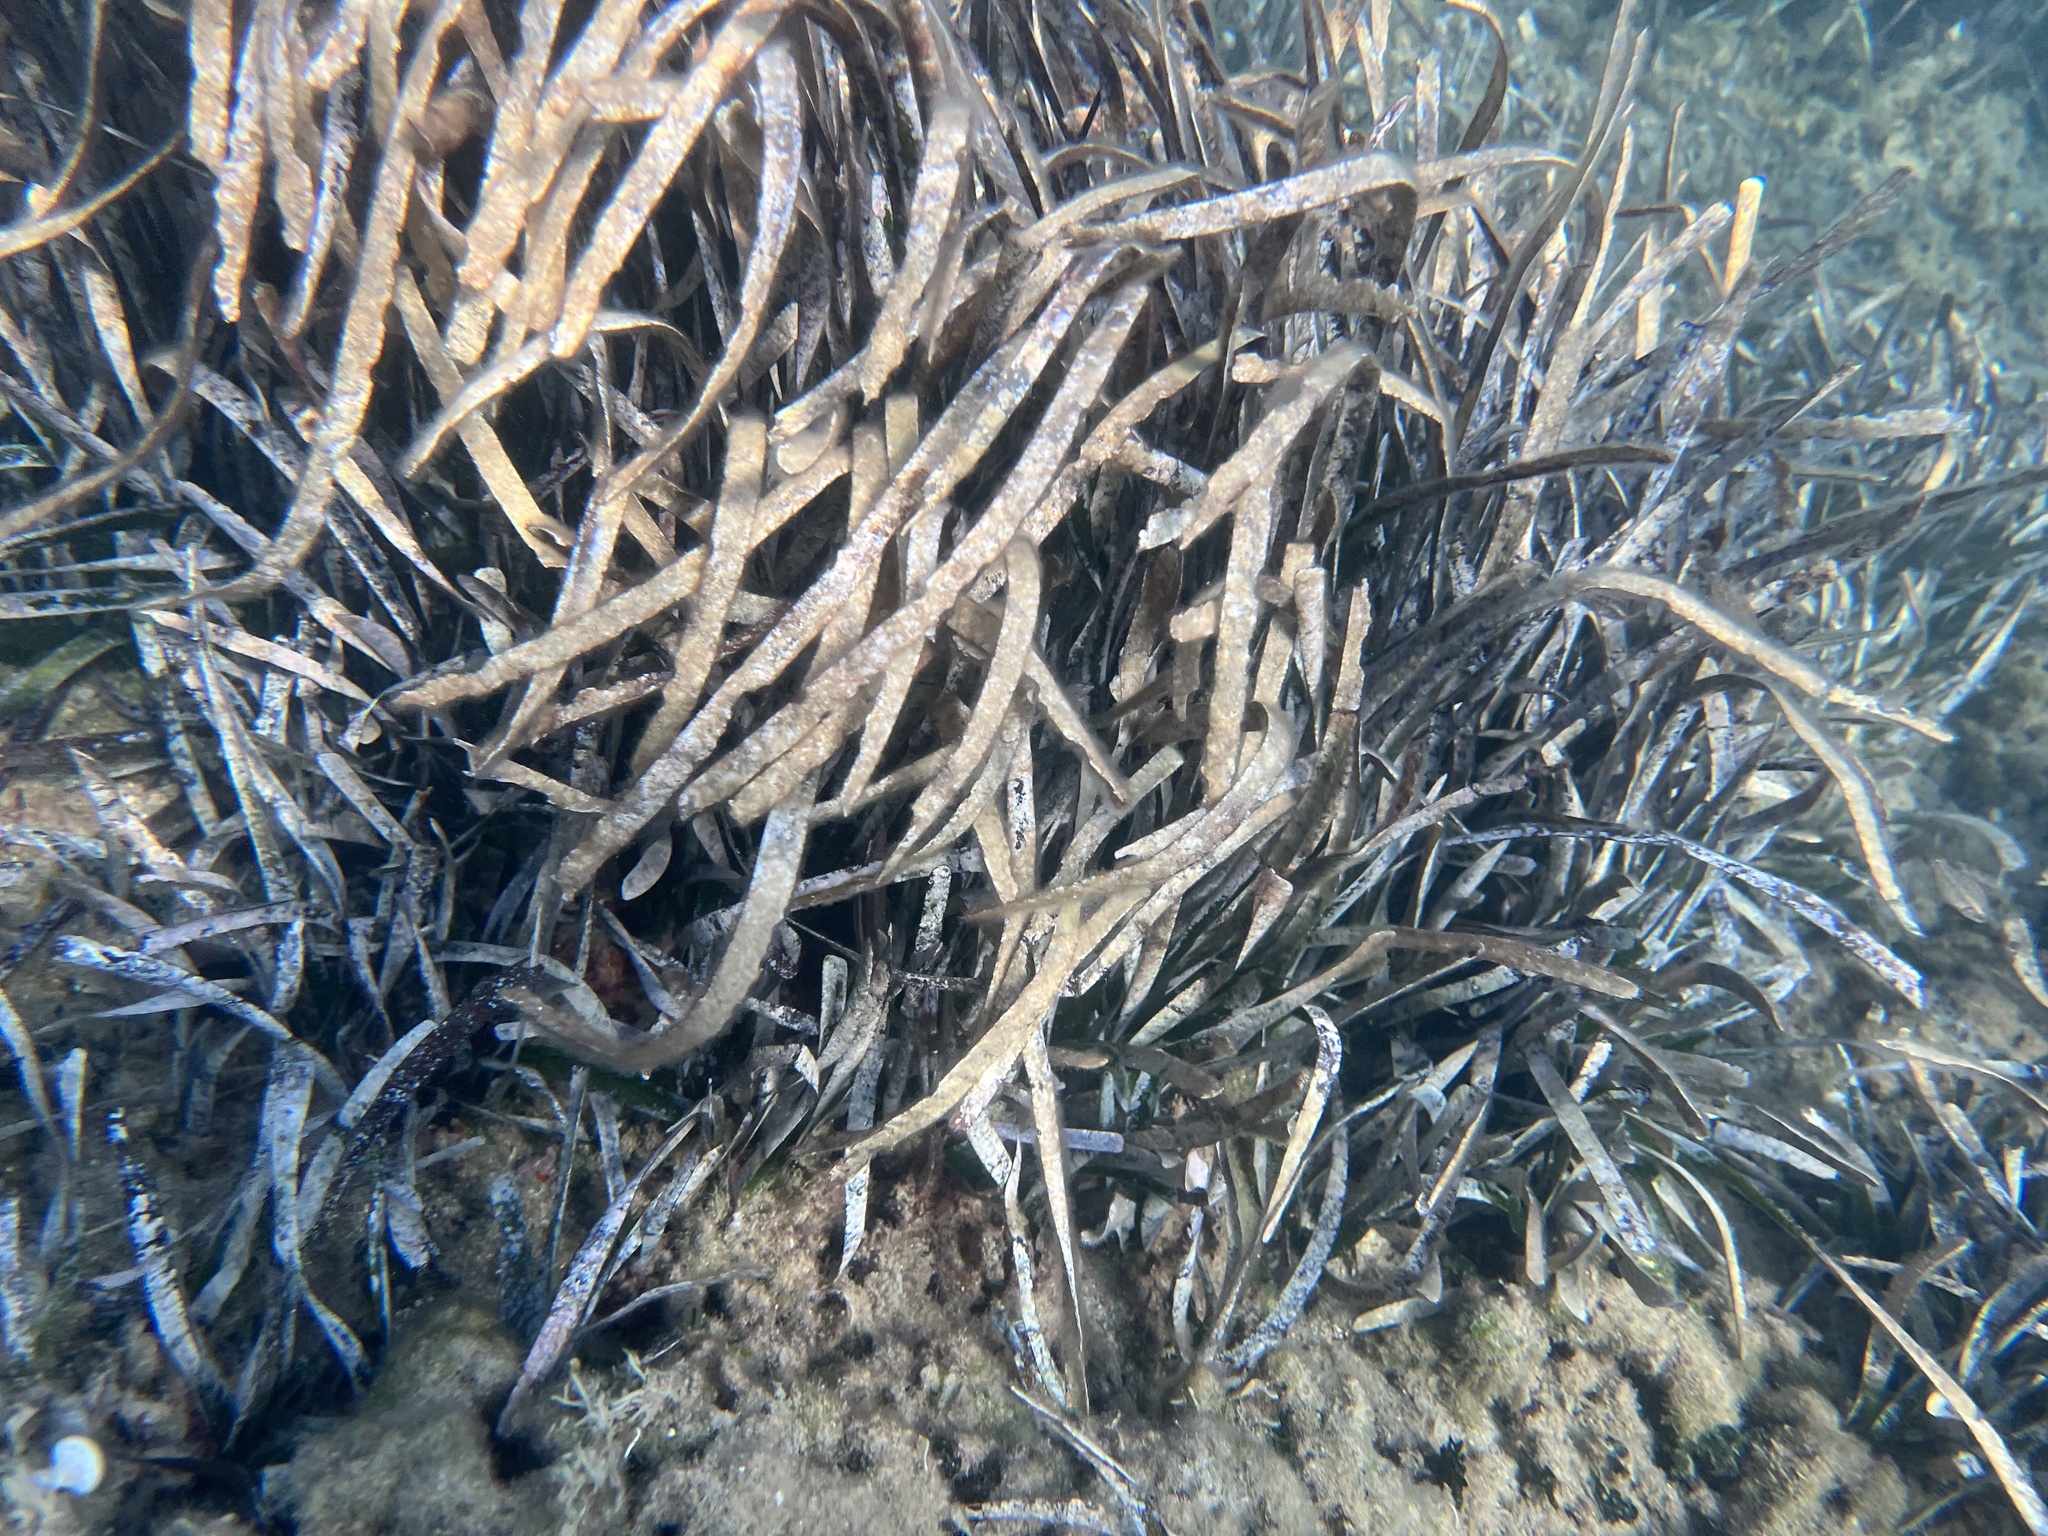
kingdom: Plantae
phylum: Tracheophyta
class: Liliopsida
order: Alismatales
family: Posidoniaceae
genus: Posidonia
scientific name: Posidonia oceanica
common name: Mediterranean tapeweed
